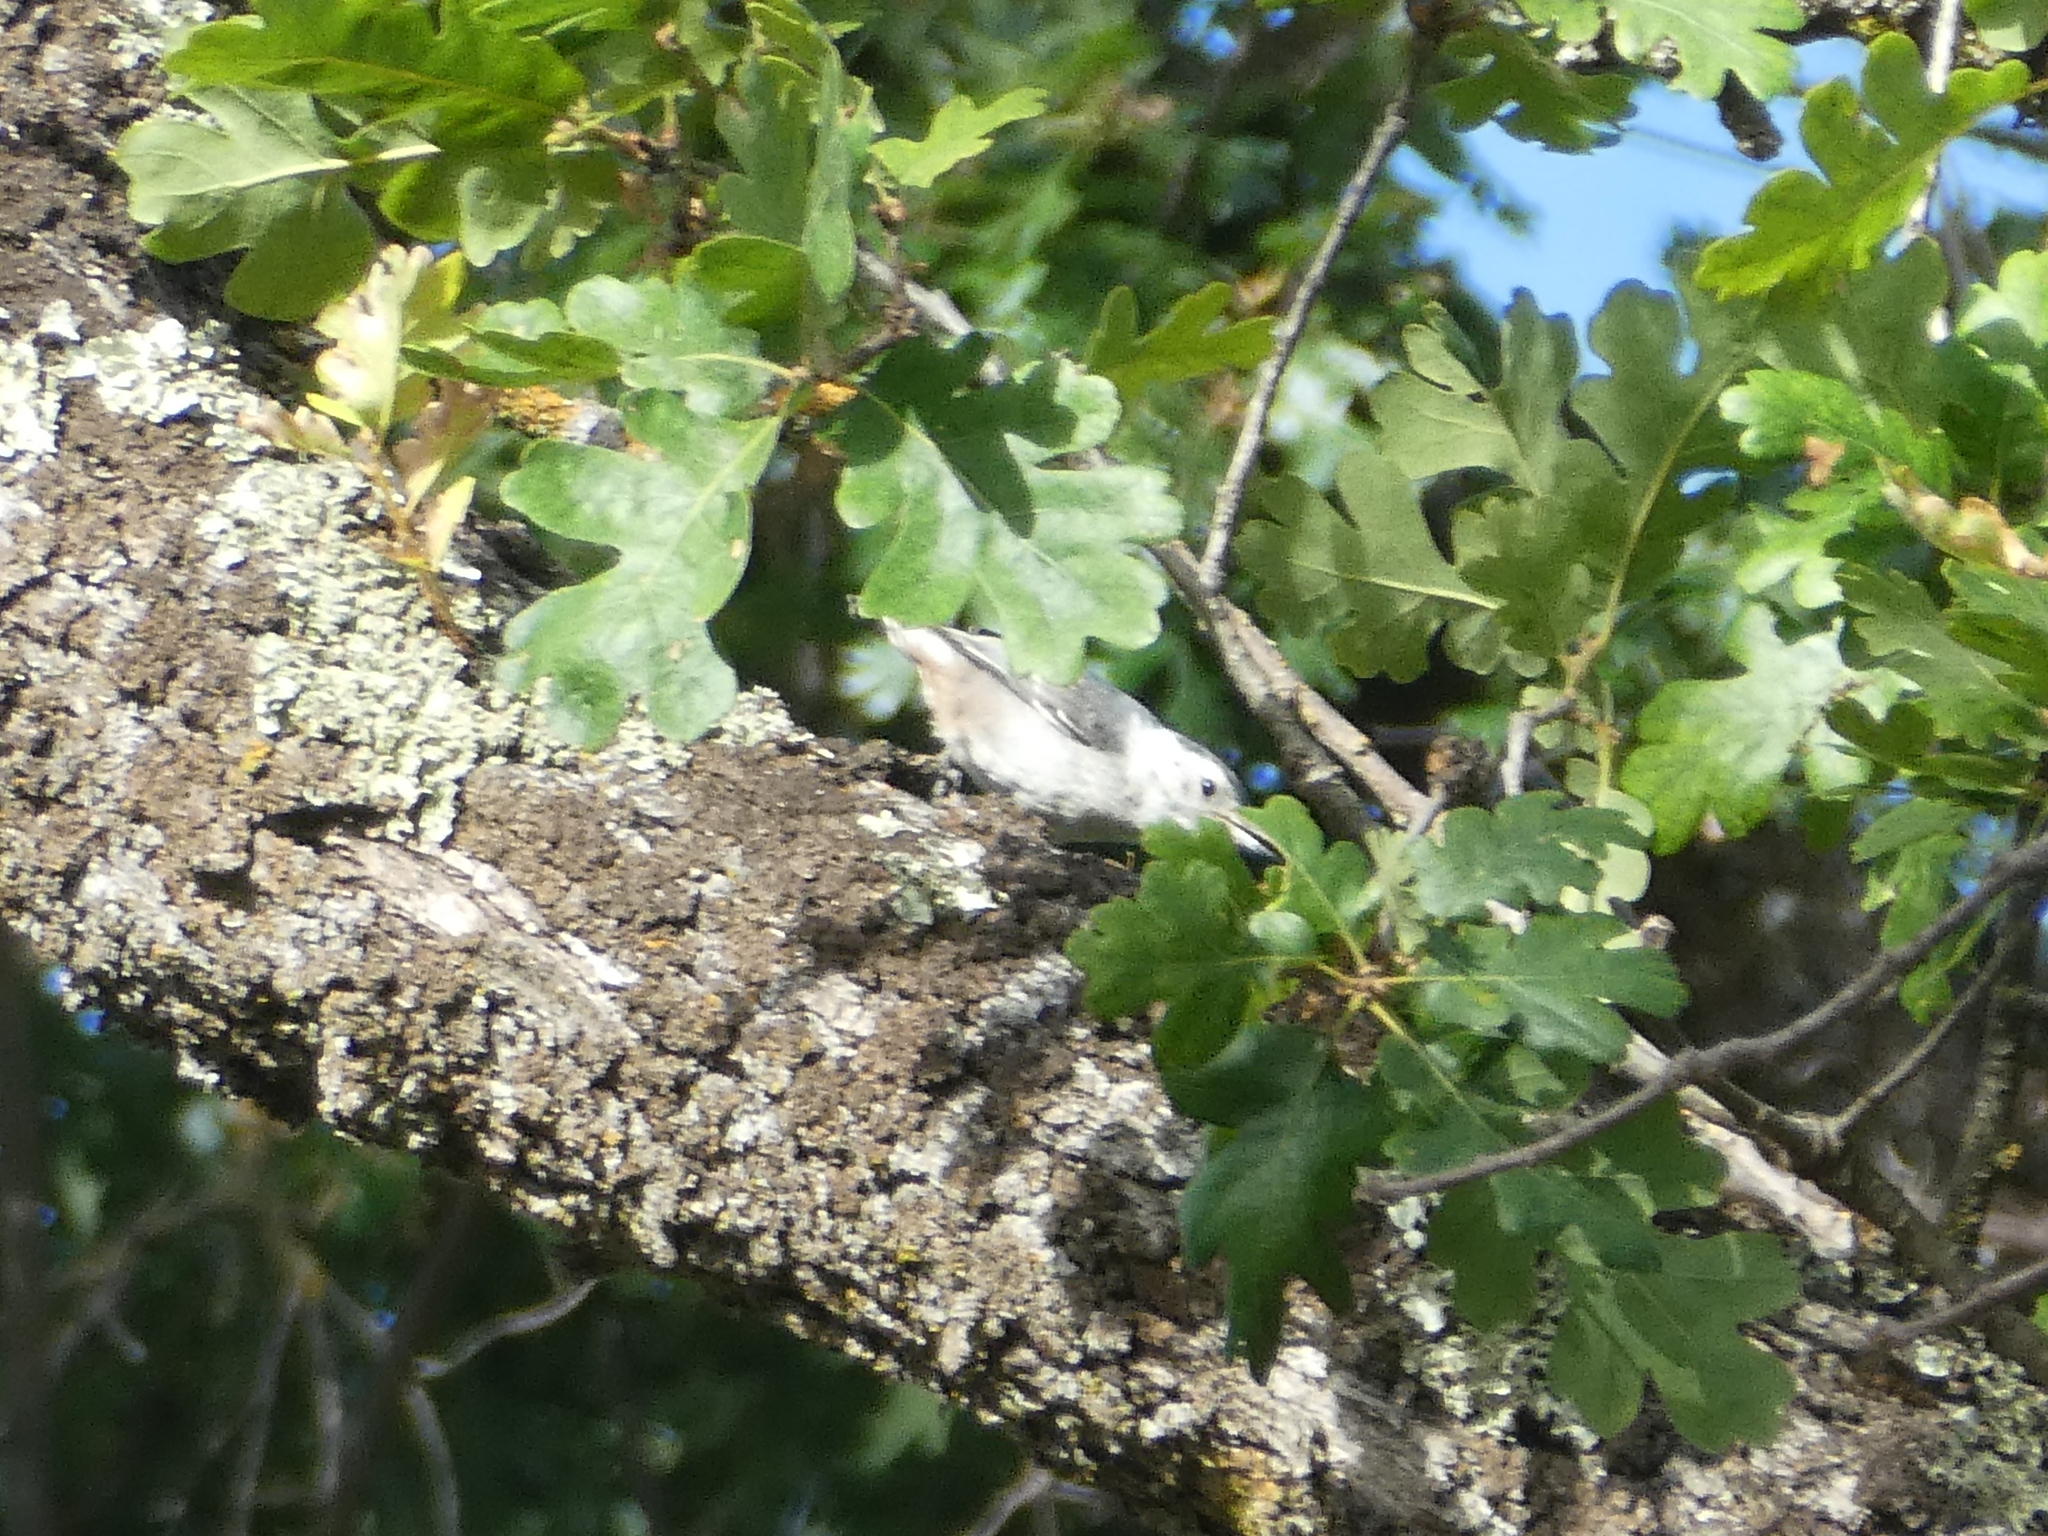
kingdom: Animalia
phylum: Chordata
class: Aves
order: Passeriformes
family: Sittidae
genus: Sitta
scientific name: Sitta carolinensis
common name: White-breasted nuthatch
